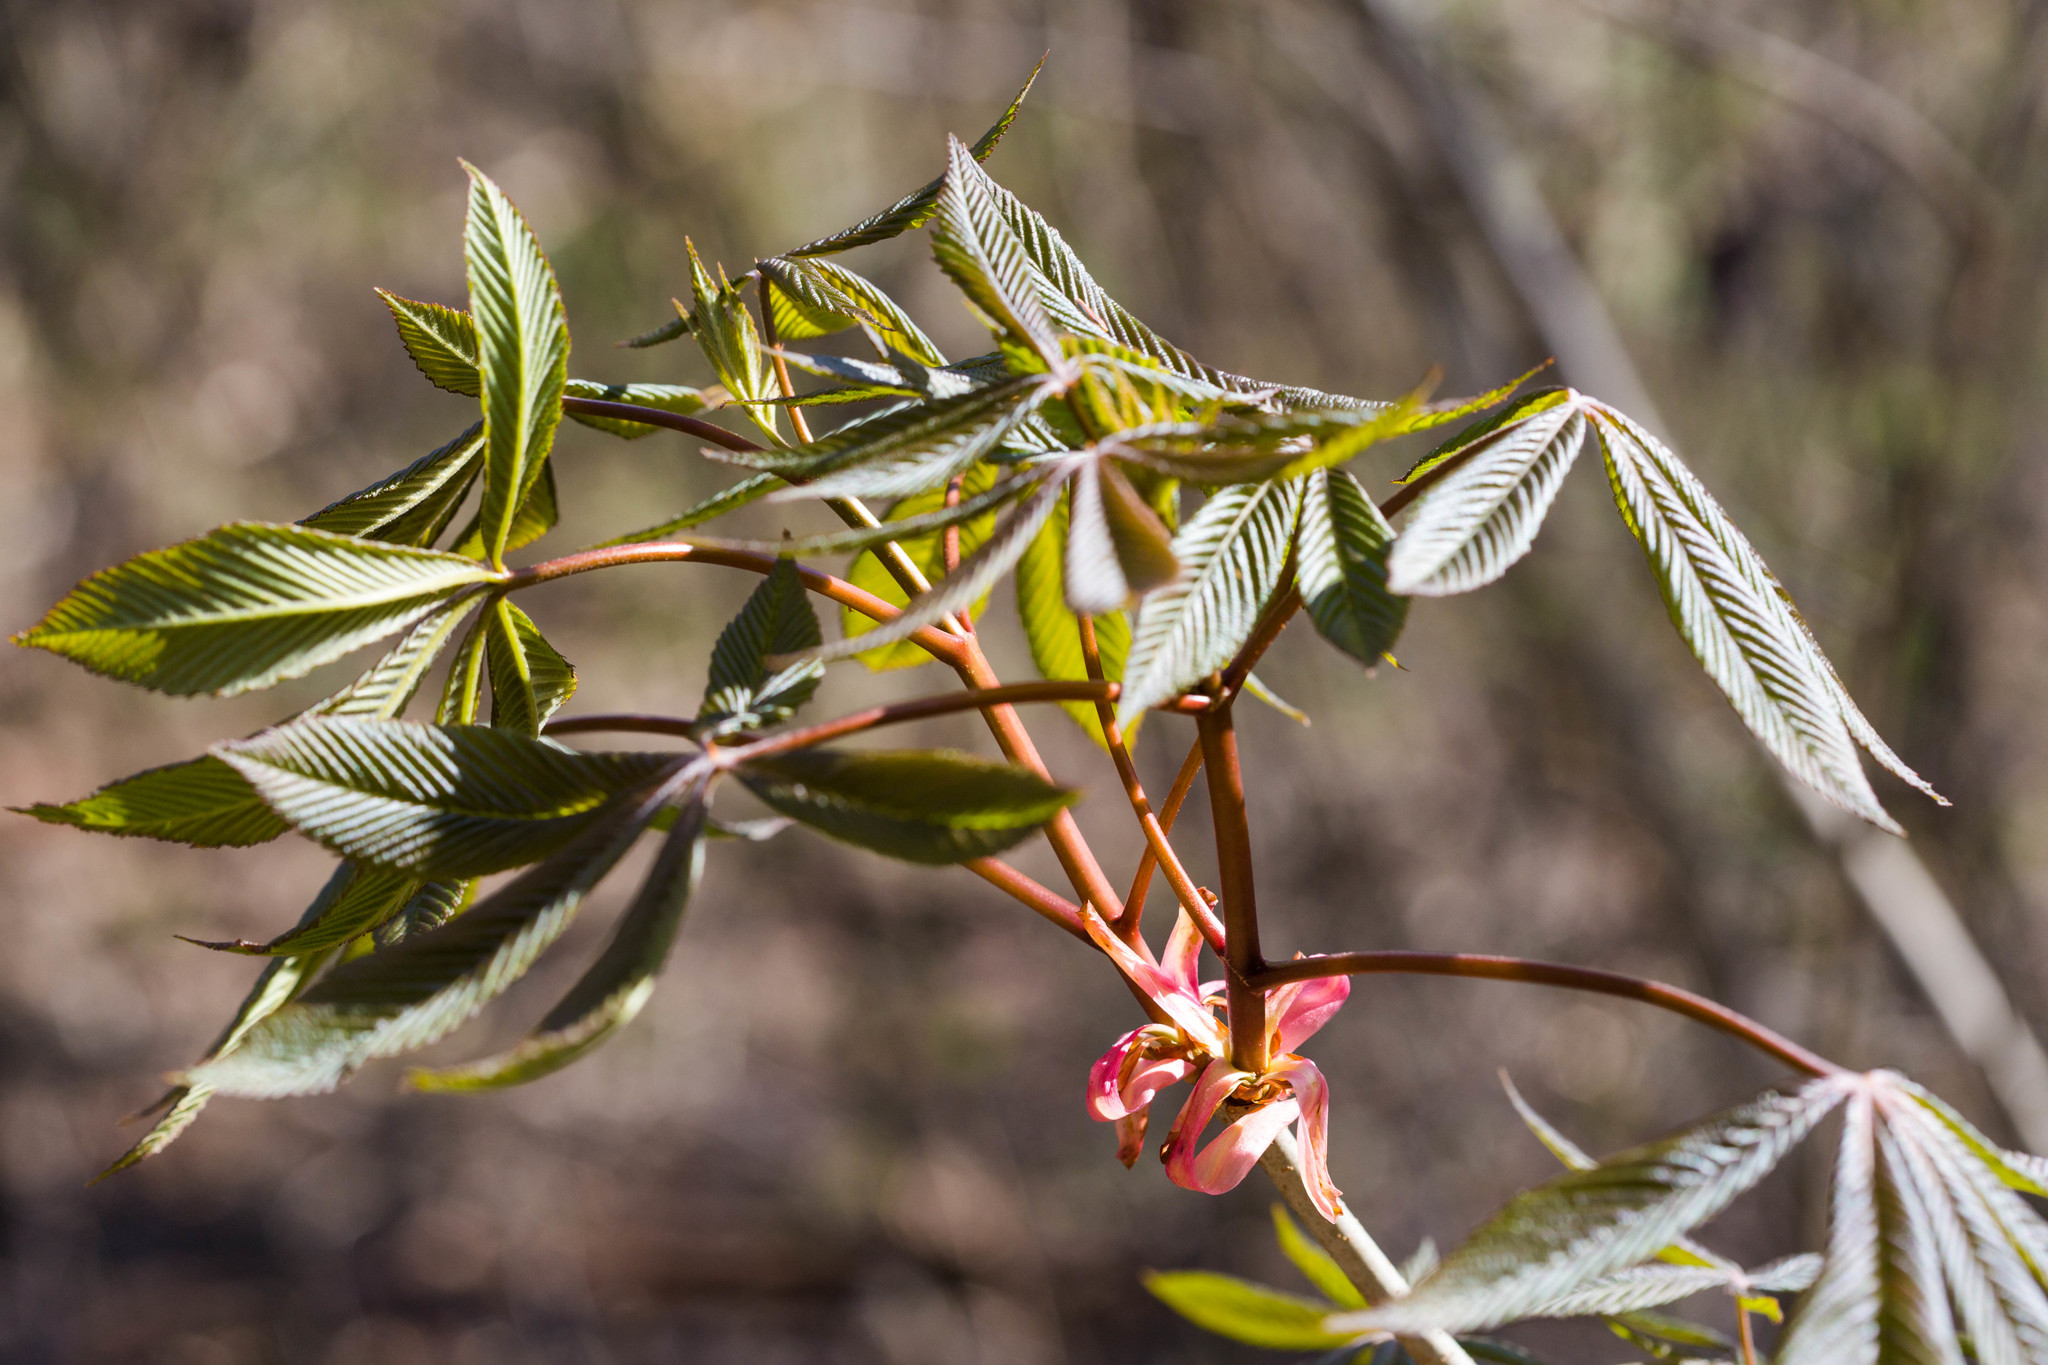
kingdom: Plantae
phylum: Tracheophyta
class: Magnoliopsida
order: Sapindales
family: Sapindaceae
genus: Aesculus
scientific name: Aesculus pavia
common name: Red buckeye
